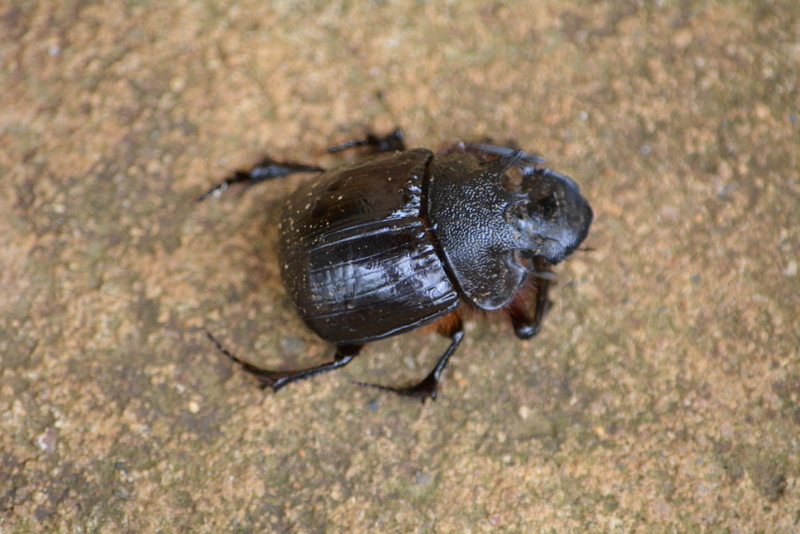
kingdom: Animalia
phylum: Arthropoda
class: Insecta
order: Coleoptera
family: Scarabaeidae
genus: Heliocopris
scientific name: Heliocopris neptunus
